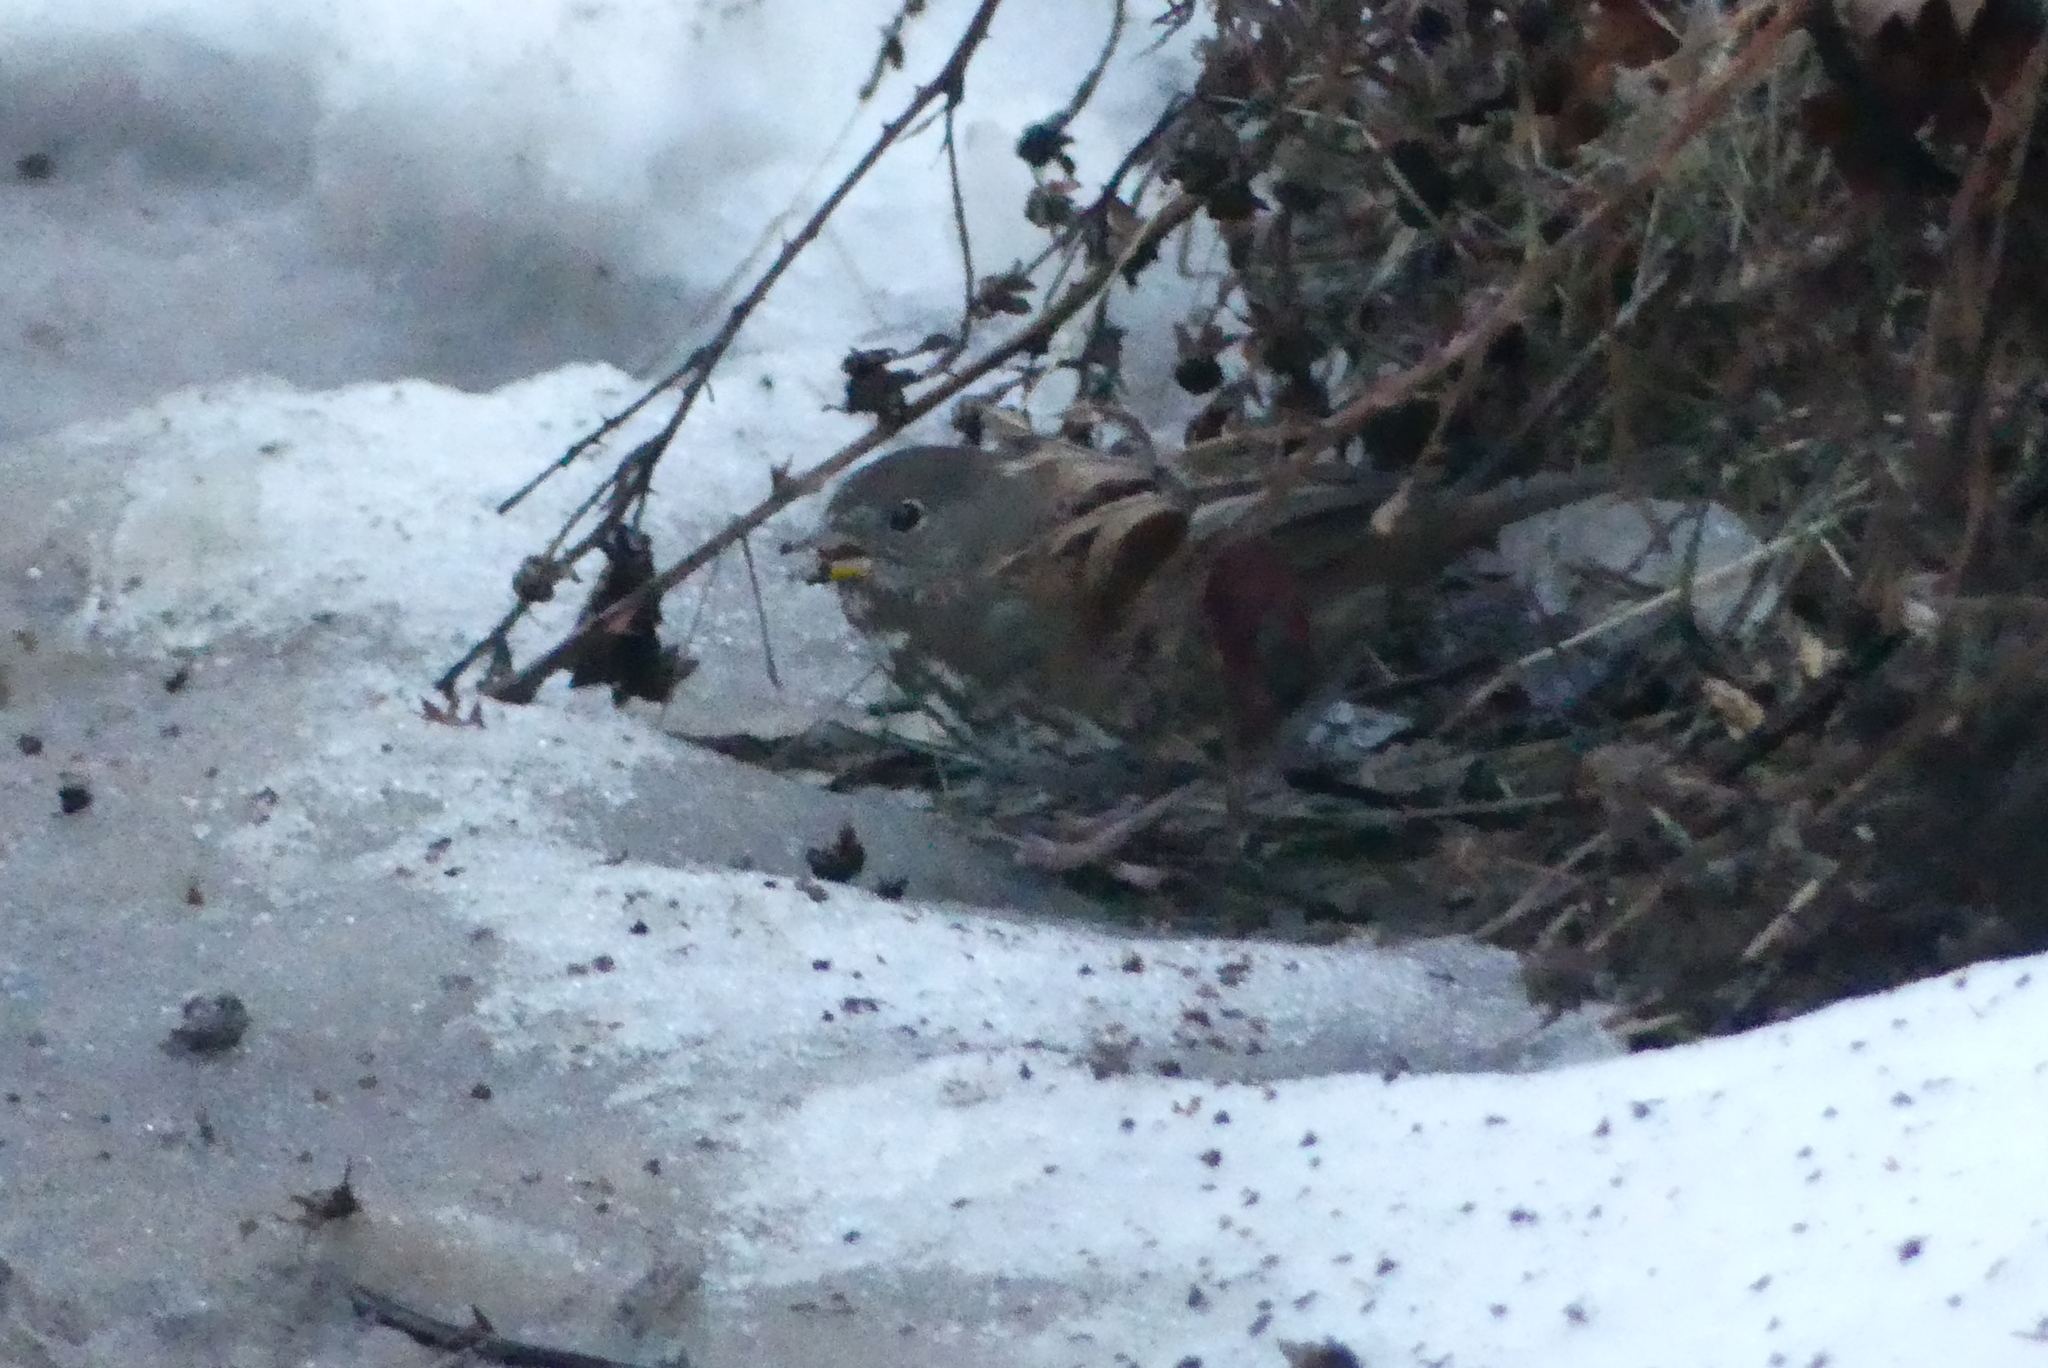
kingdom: Animalia
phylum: Chordata
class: Aves
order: Passeriformes
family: Passerellidae
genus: Passerella
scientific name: Passerella iliaca
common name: Fox sparrow
